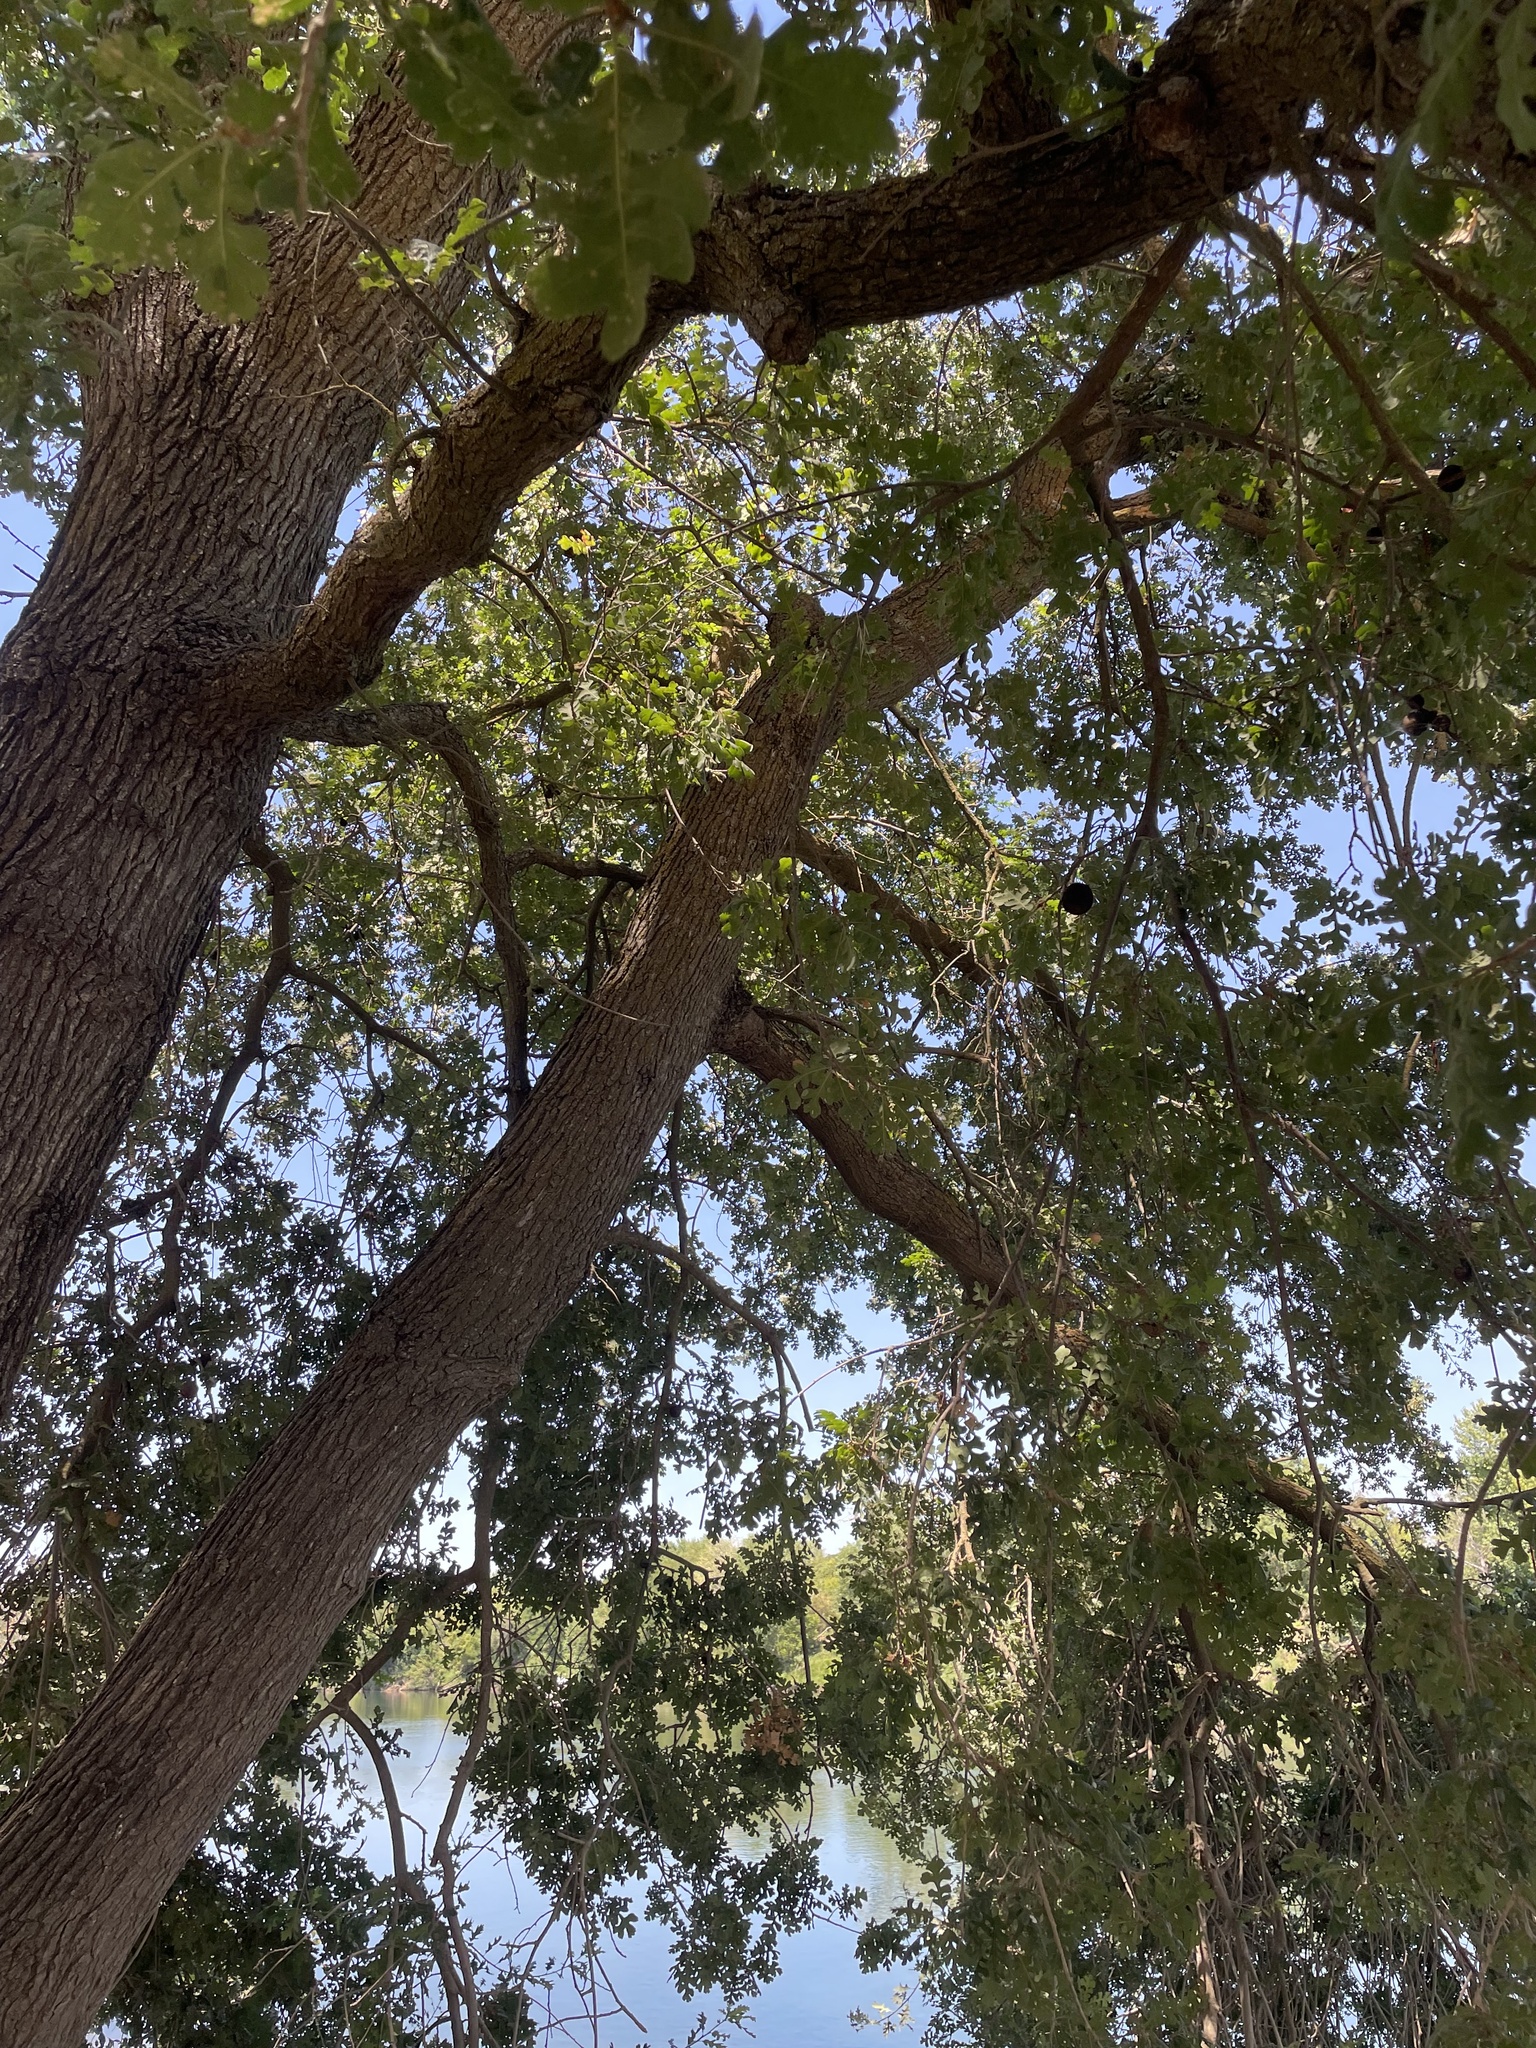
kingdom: Plantae
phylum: Tracheophyta
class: Magnoliopsida
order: Fagales
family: Fagaceae
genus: Quercus
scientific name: Quercus lobata
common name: Valley oak
